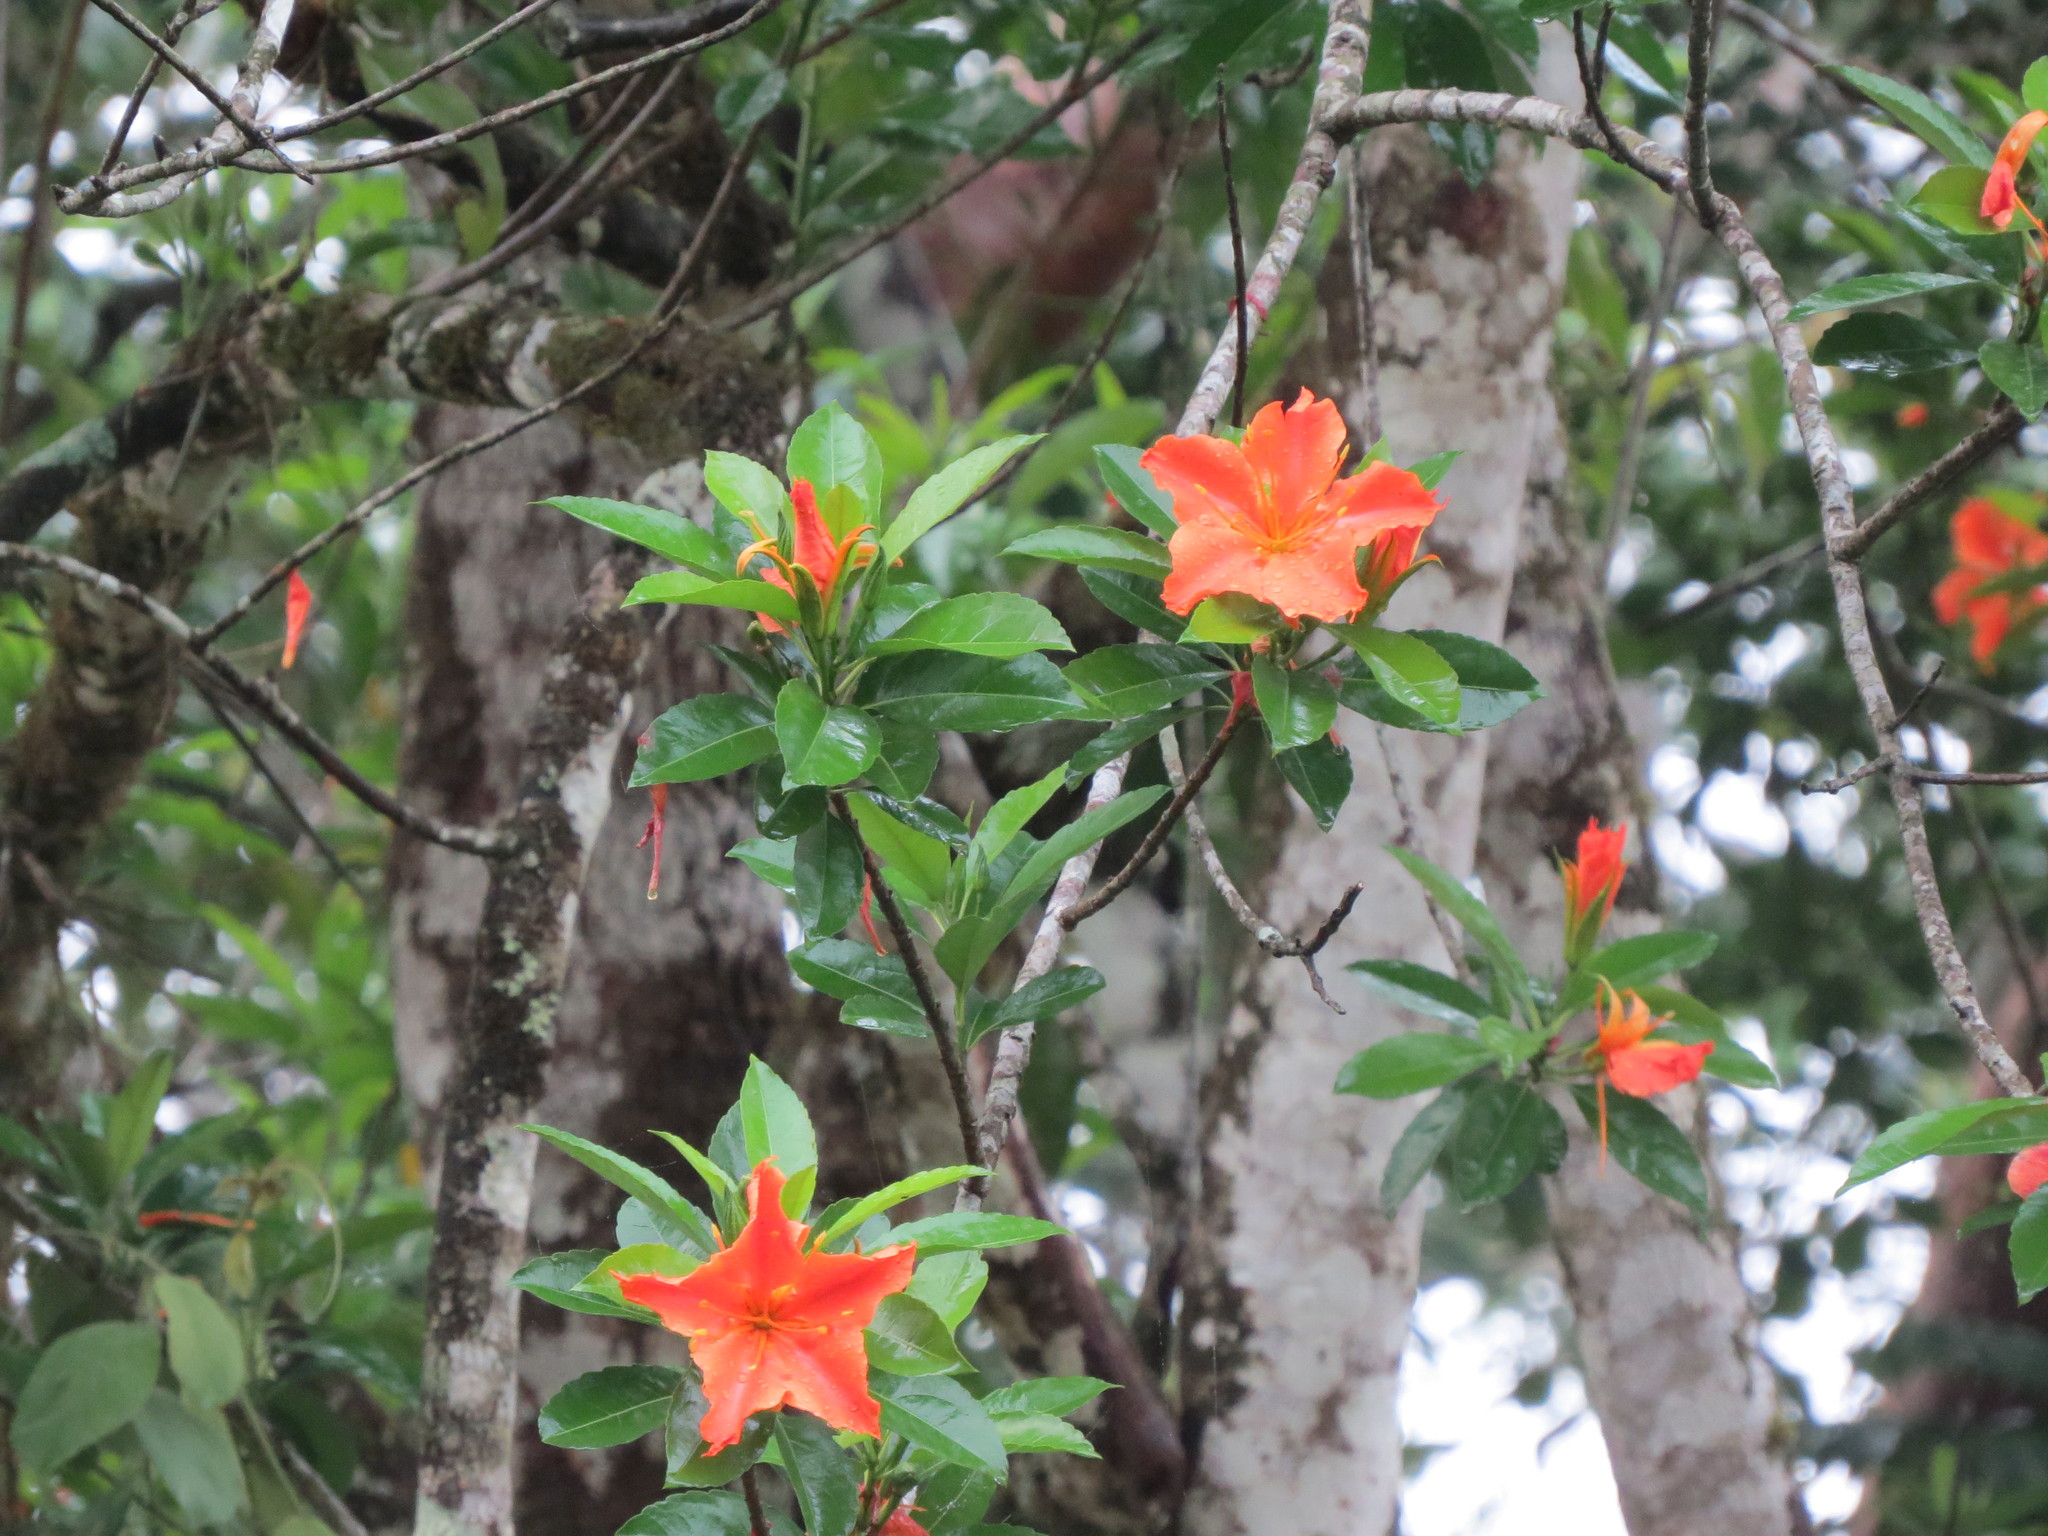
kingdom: Plantae
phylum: Tracheophyta
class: Magnoliopsida
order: Malpighiales
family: Turneraceae
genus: Erblichia
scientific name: Erblichia odorata
